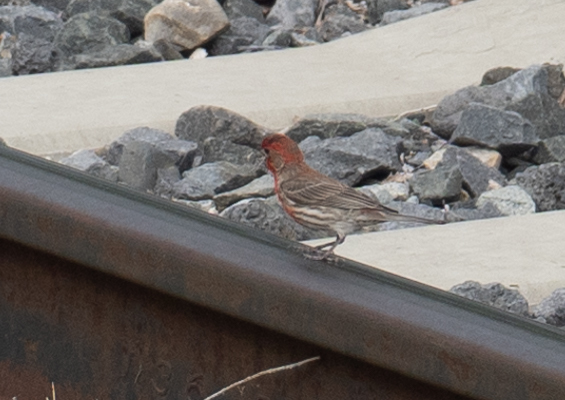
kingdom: Animalia
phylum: Chordata
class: Aves
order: Passeriformes
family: Fringillidae
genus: Haemorhous
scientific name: Haemorhous mexicanus
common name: House finch
